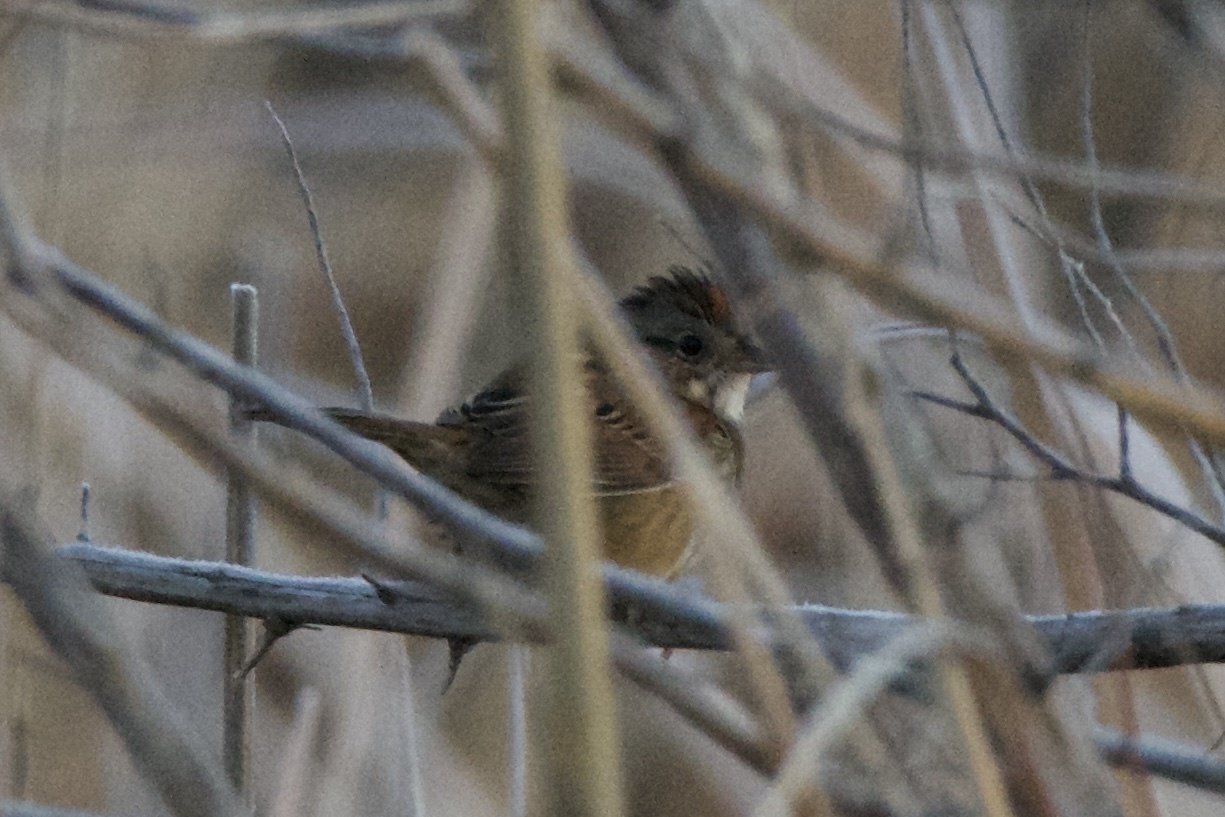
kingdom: Animalia
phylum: Chordata
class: Aves
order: Passeriformes
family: Passerellidae
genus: Melospiza
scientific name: Melospiza georgiana
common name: Swamp sparrow
